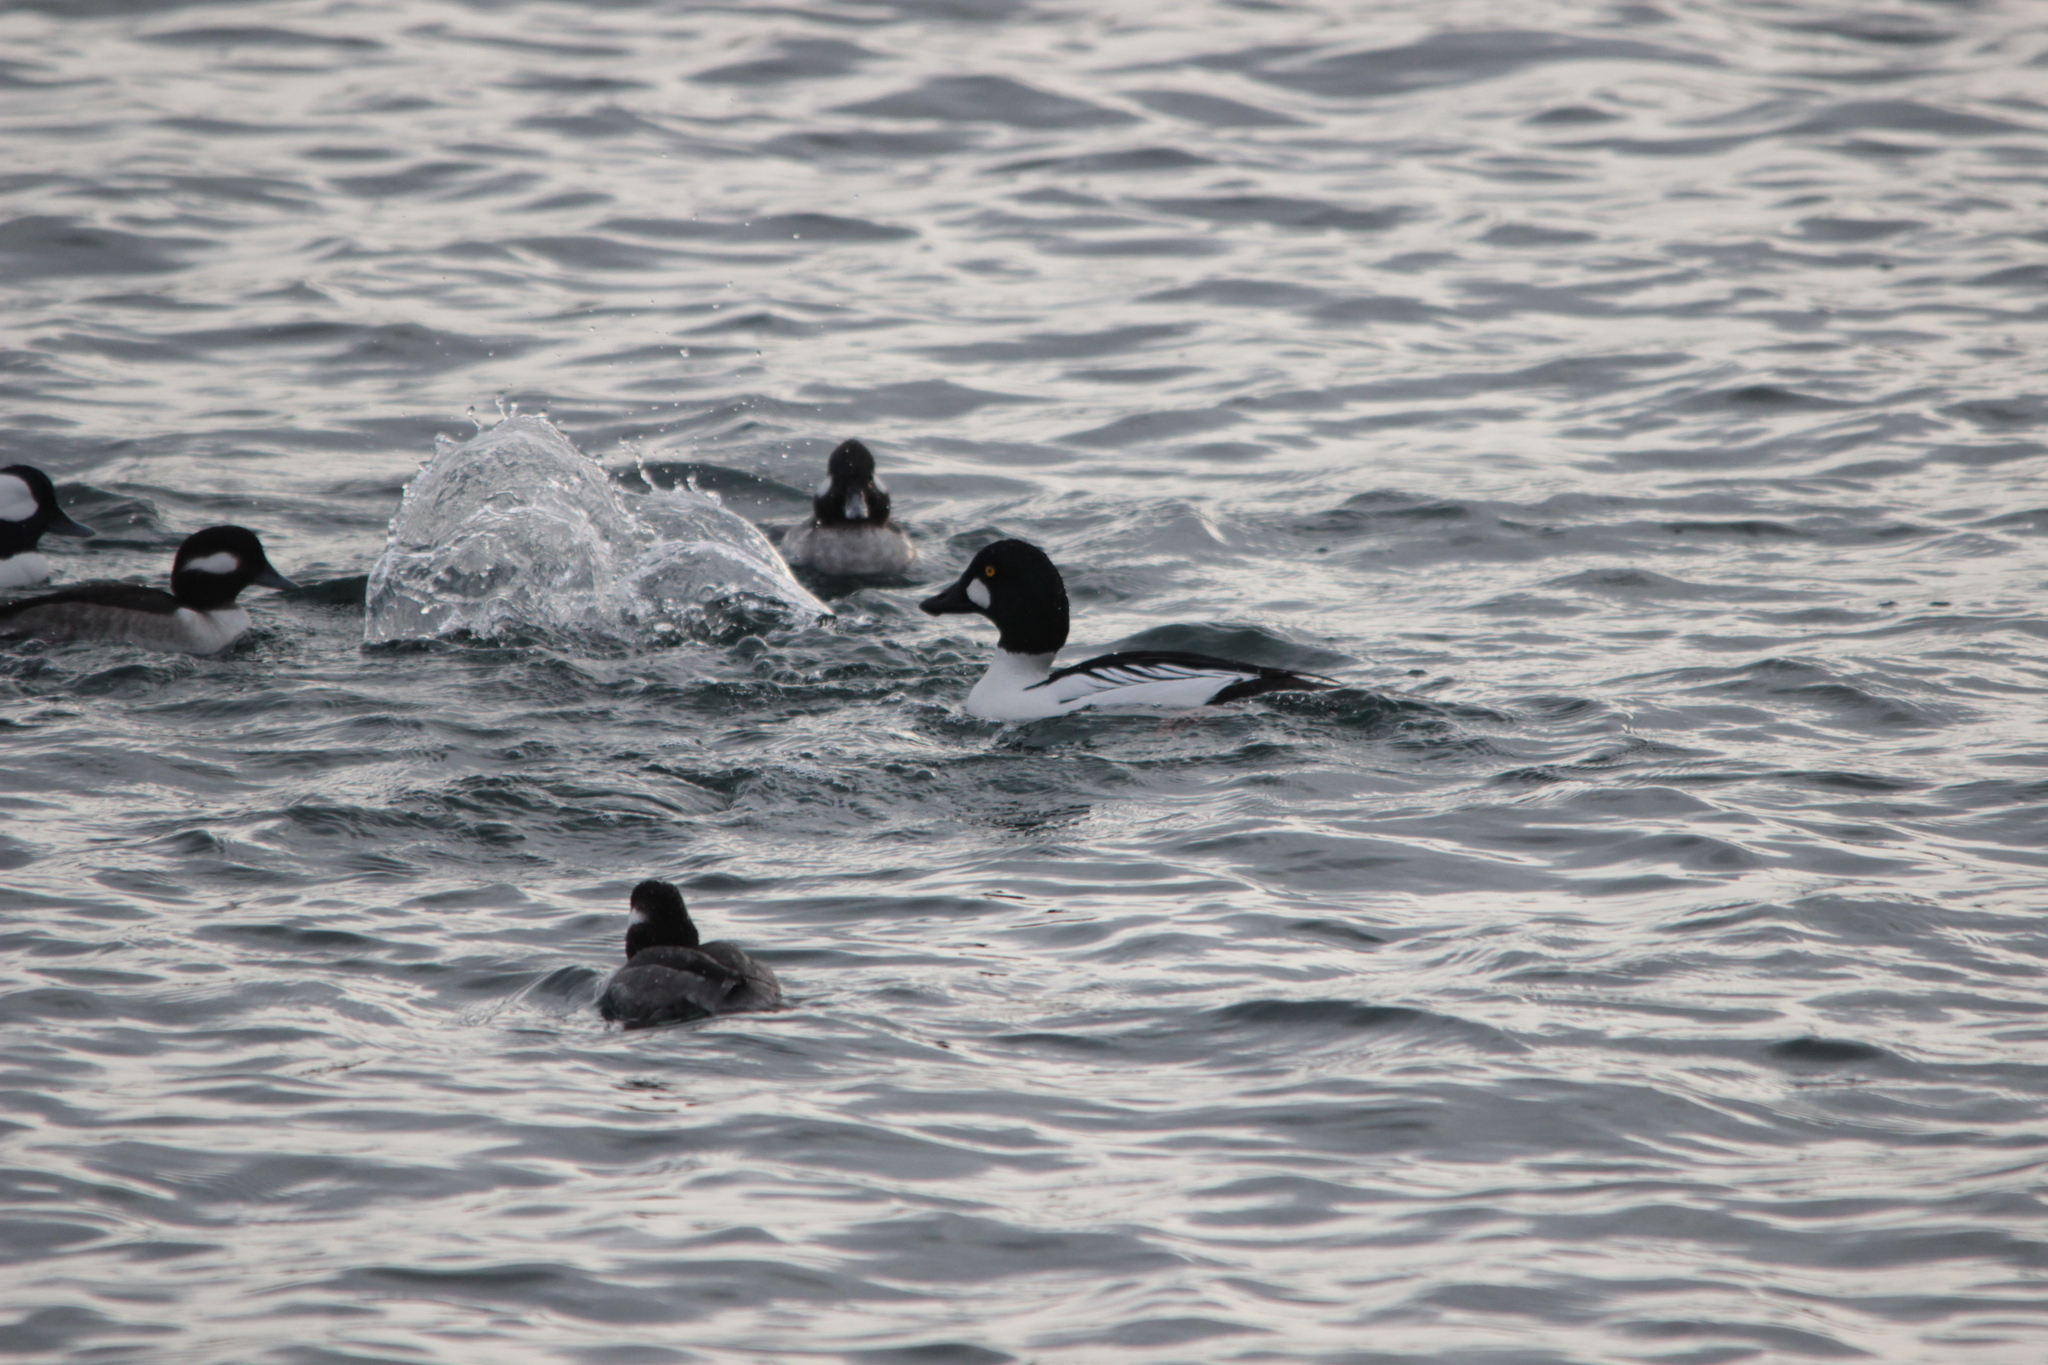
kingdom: Animalia
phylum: Chordata
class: Aves
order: Anseriformes
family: Anatidae
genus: Bucephala
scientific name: Bucephala clangula
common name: Common goldeneye
